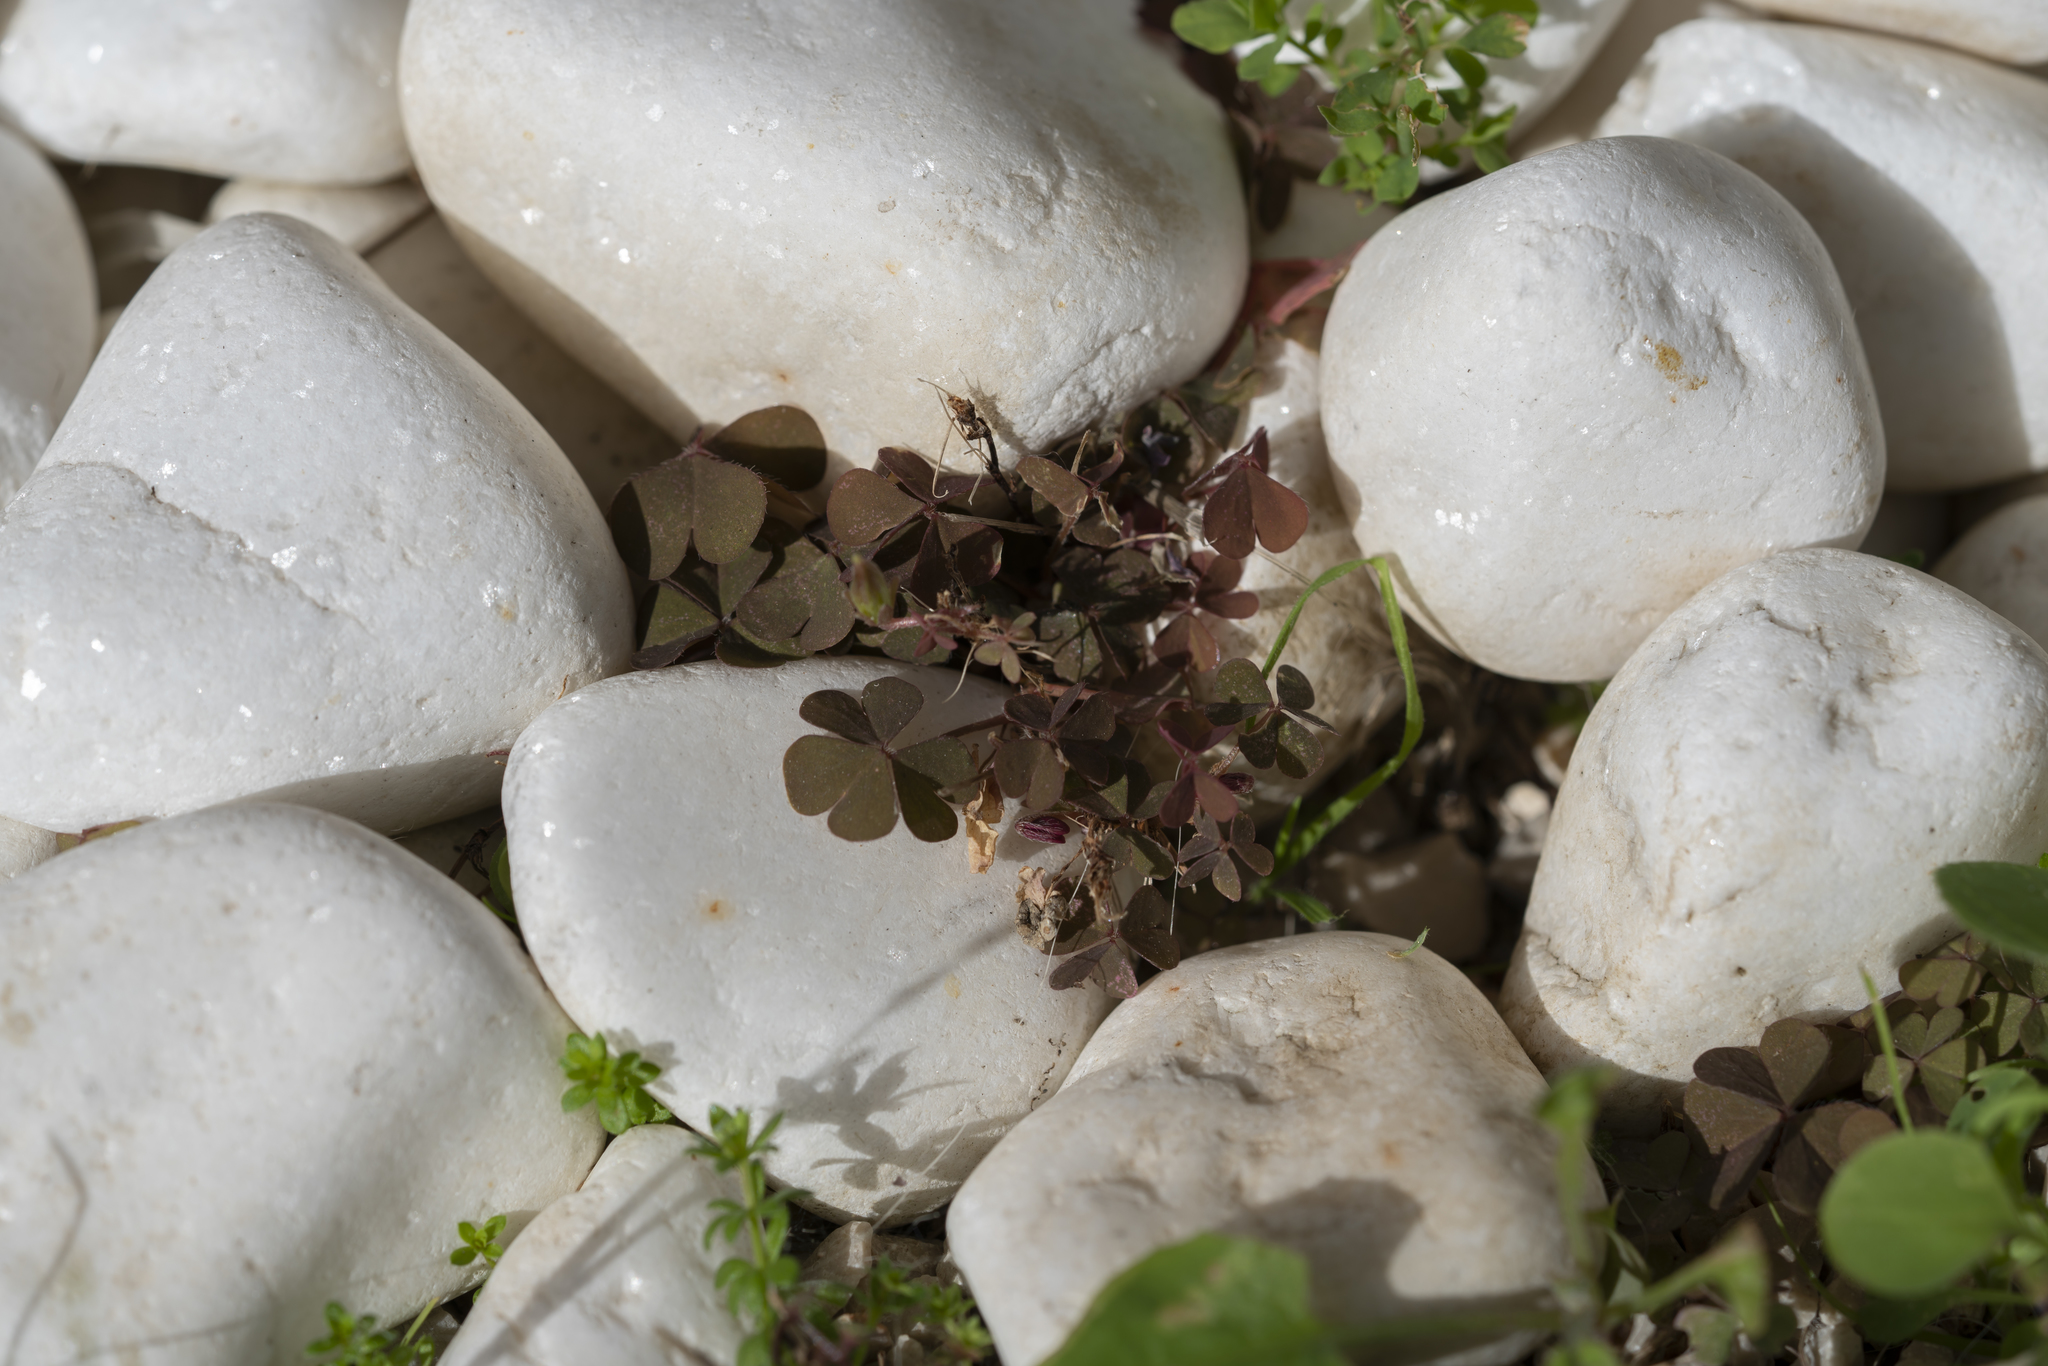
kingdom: Plantae
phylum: Tracheophyta
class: Magnoliopsida
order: Oxalidales
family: Oxalidaceae
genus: Oxalis
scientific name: Oxalis corniculata
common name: Procumbent yellow-sorrel
